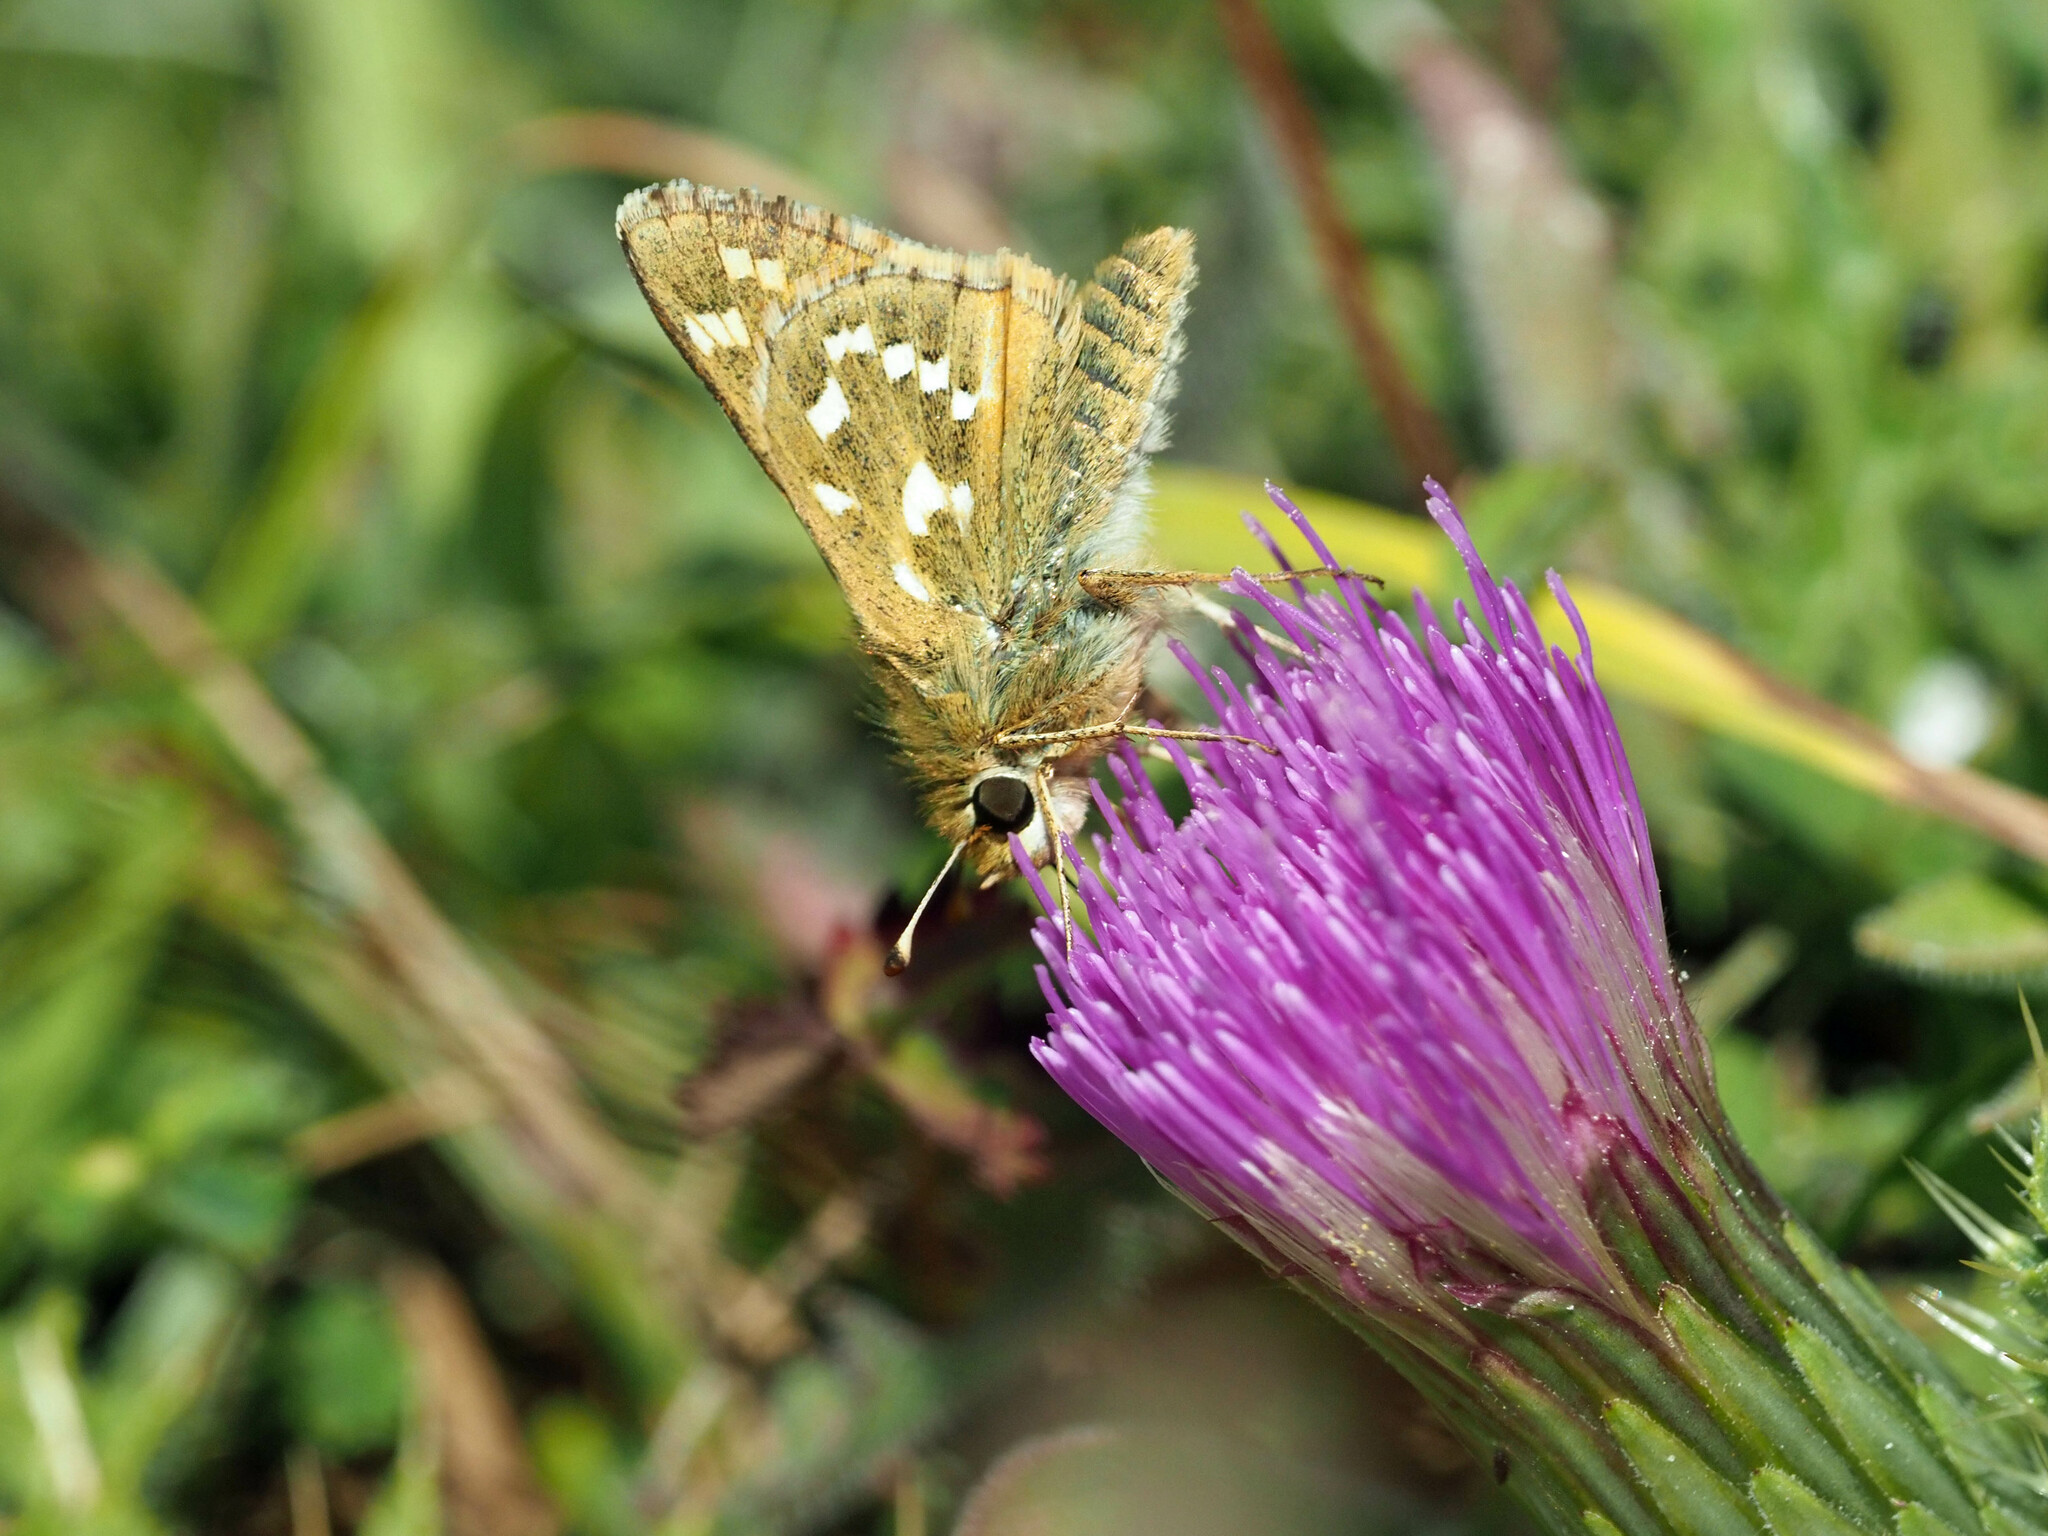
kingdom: Animalia
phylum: Arthropoda
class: Insecta
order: Lepidoptera
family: Hesperiidae
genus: Hesperia
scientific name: Hesperia comma
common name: Common branded skipper
